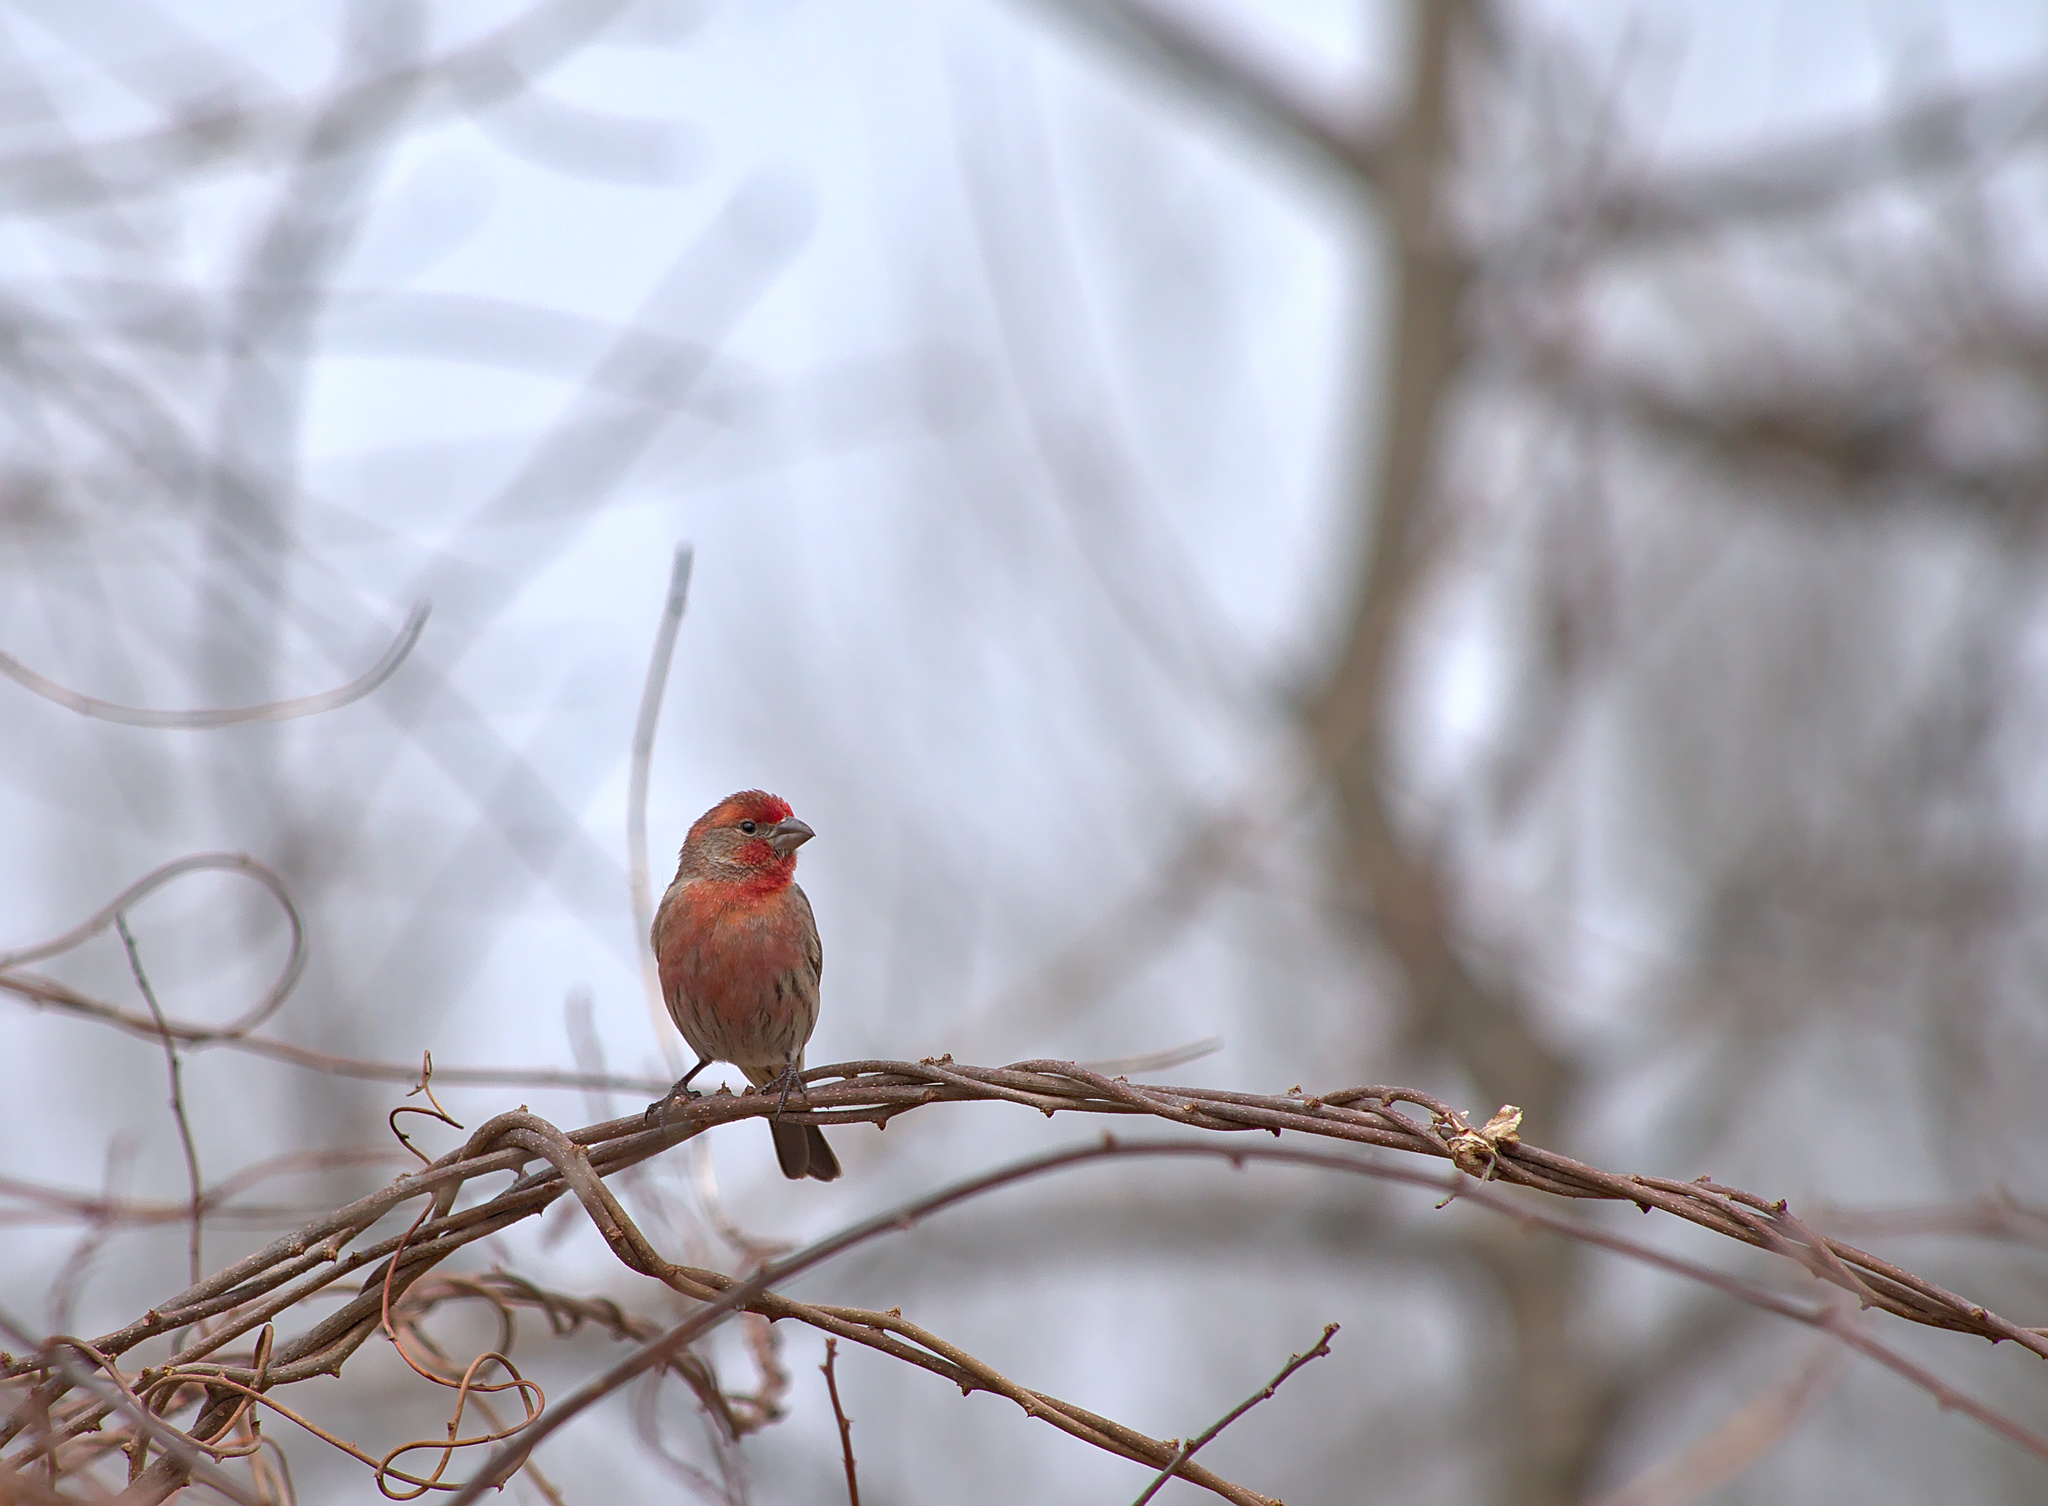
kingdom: Animalia
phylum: Chordata
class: Aves
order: Passeriformes
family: Fringillidae
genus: Haemorhous
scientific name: Haemorhous mexicanus
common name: House finch
